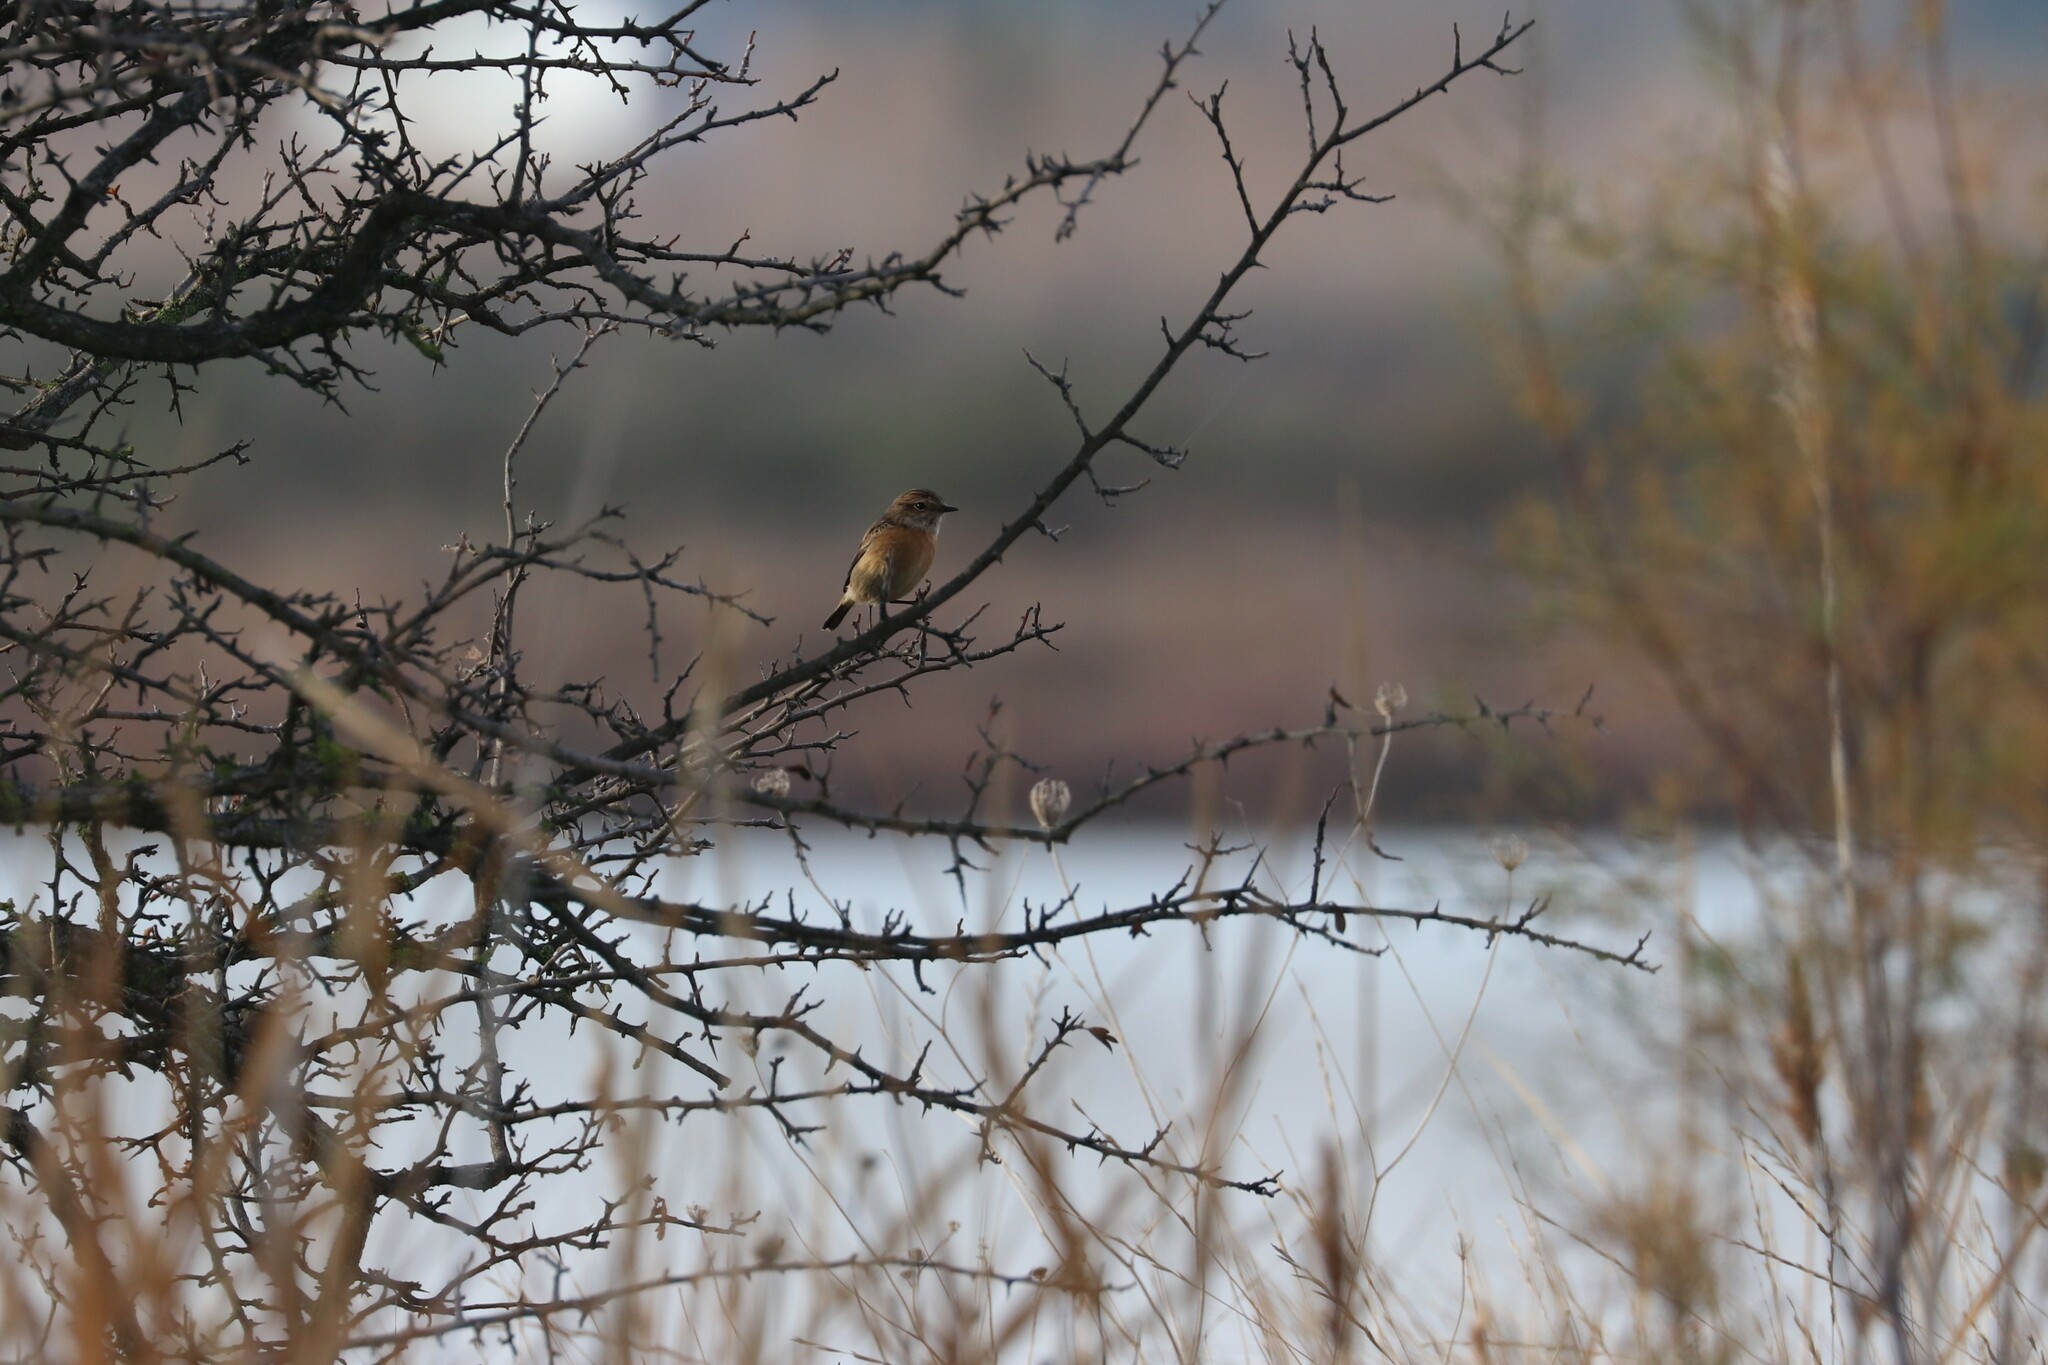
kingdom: Animalia
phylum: Chordata
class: Aves
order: Passeriformes
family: Muscicapidae
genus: Saxicola
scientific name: Saxicola rubicola
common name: European stonechat
